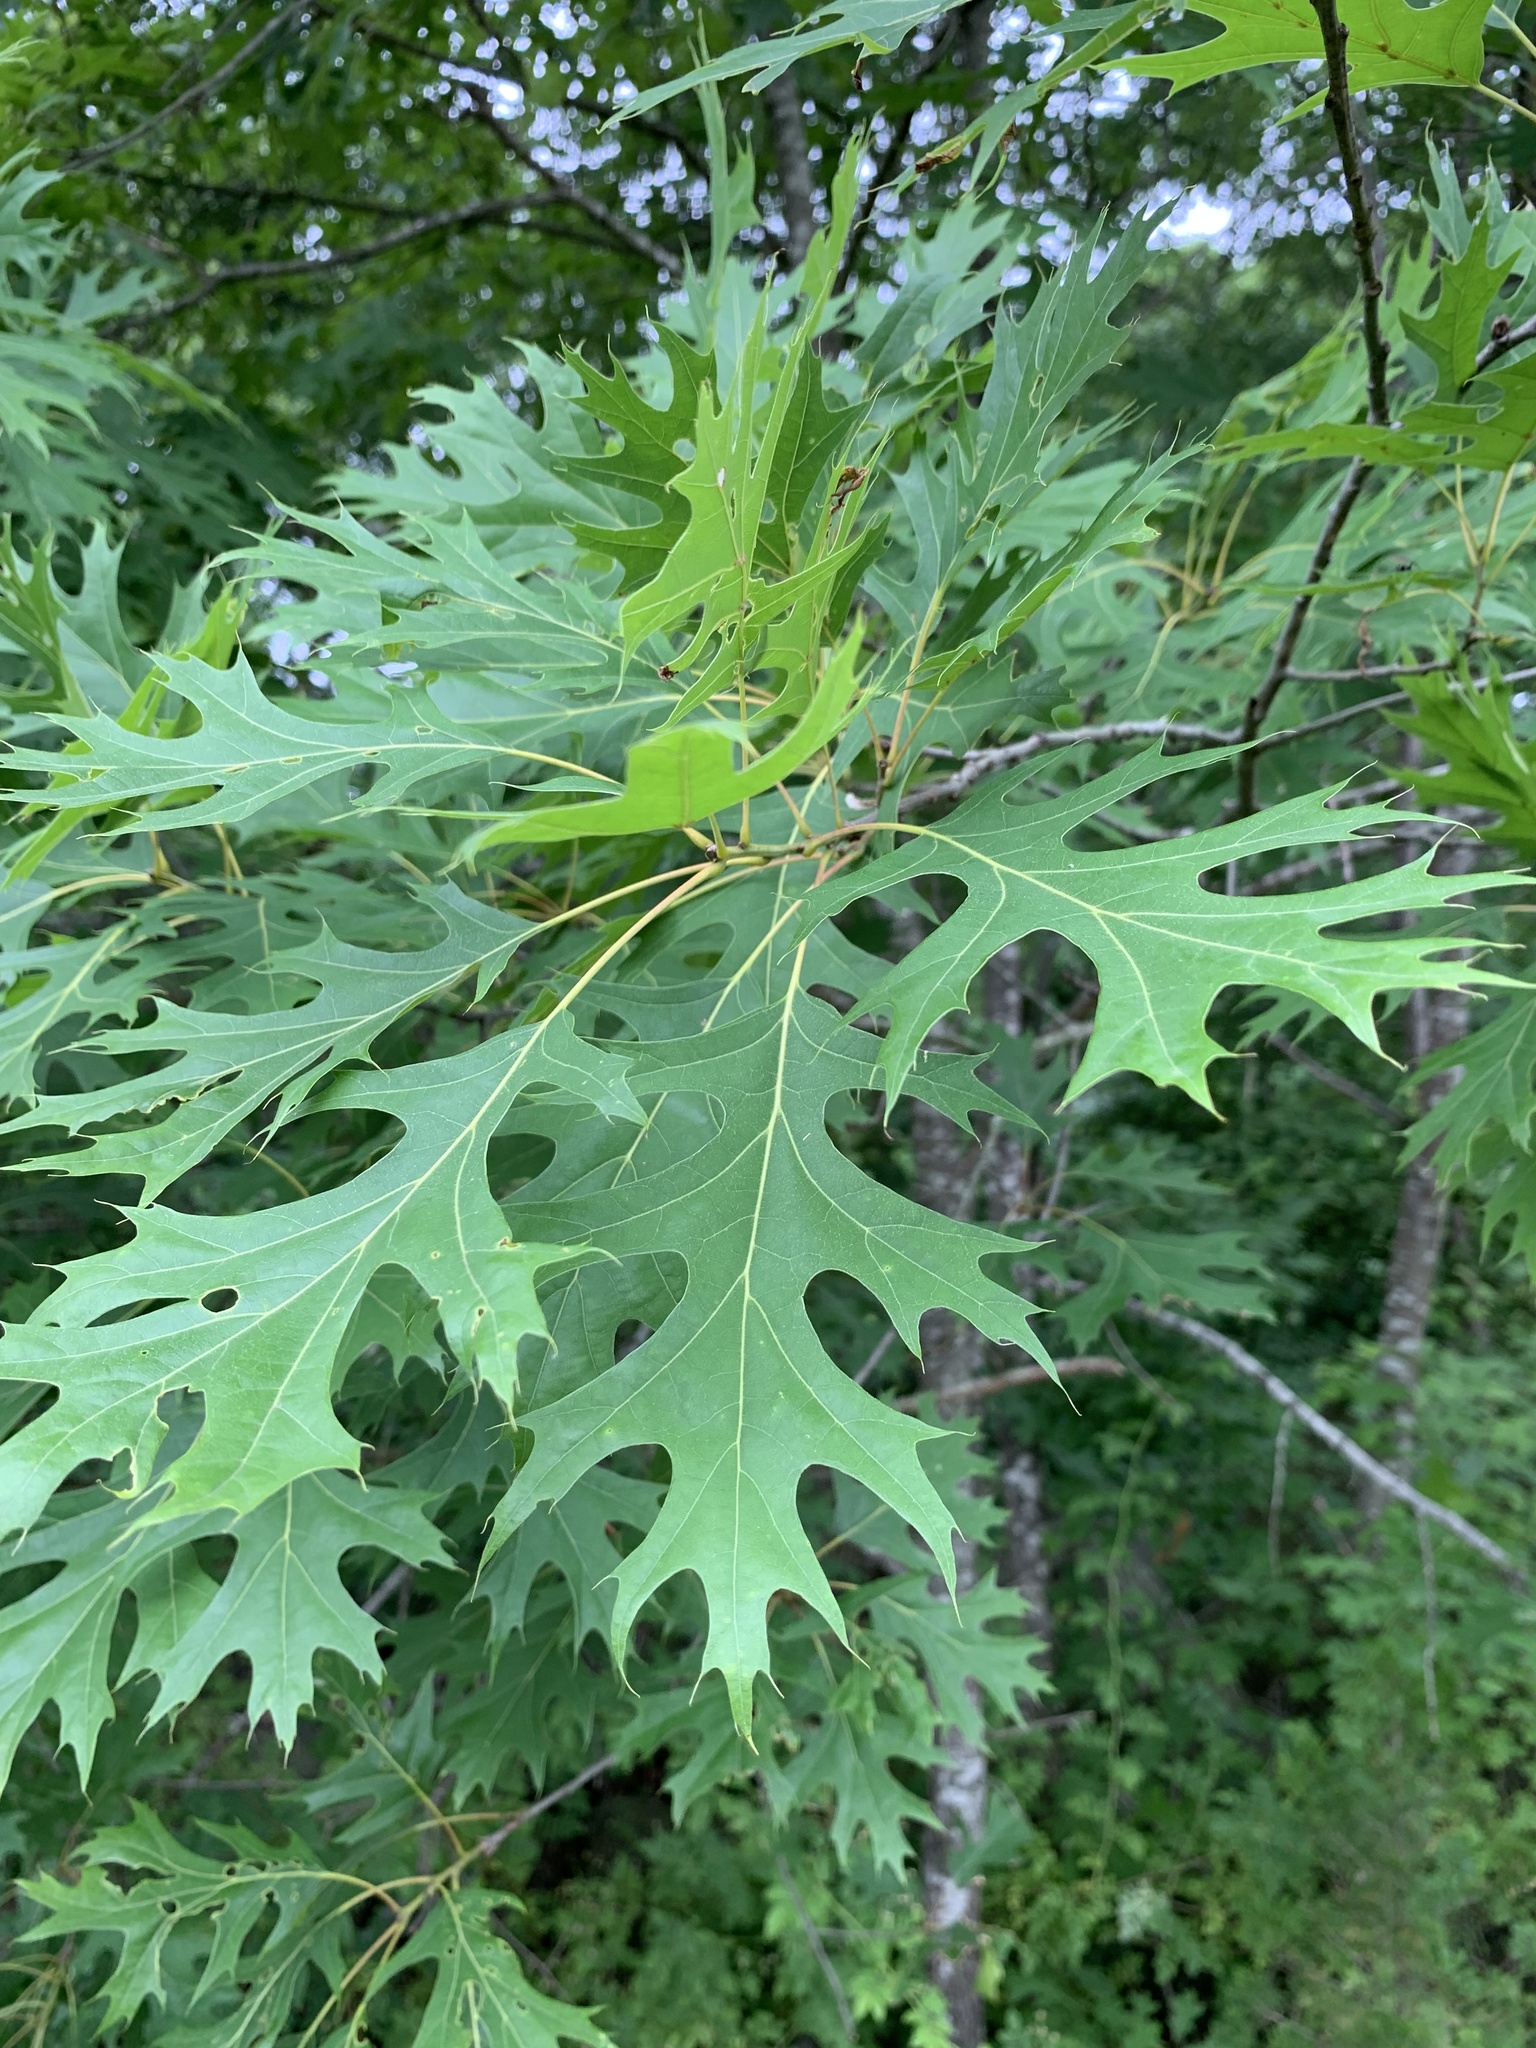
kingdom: Plantae
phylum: Tracheophyta
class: Magnoliopsida
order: Fagales
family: Fagaceae
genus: Quercus
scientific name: Quercus coccinea
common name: Scarlet oak
